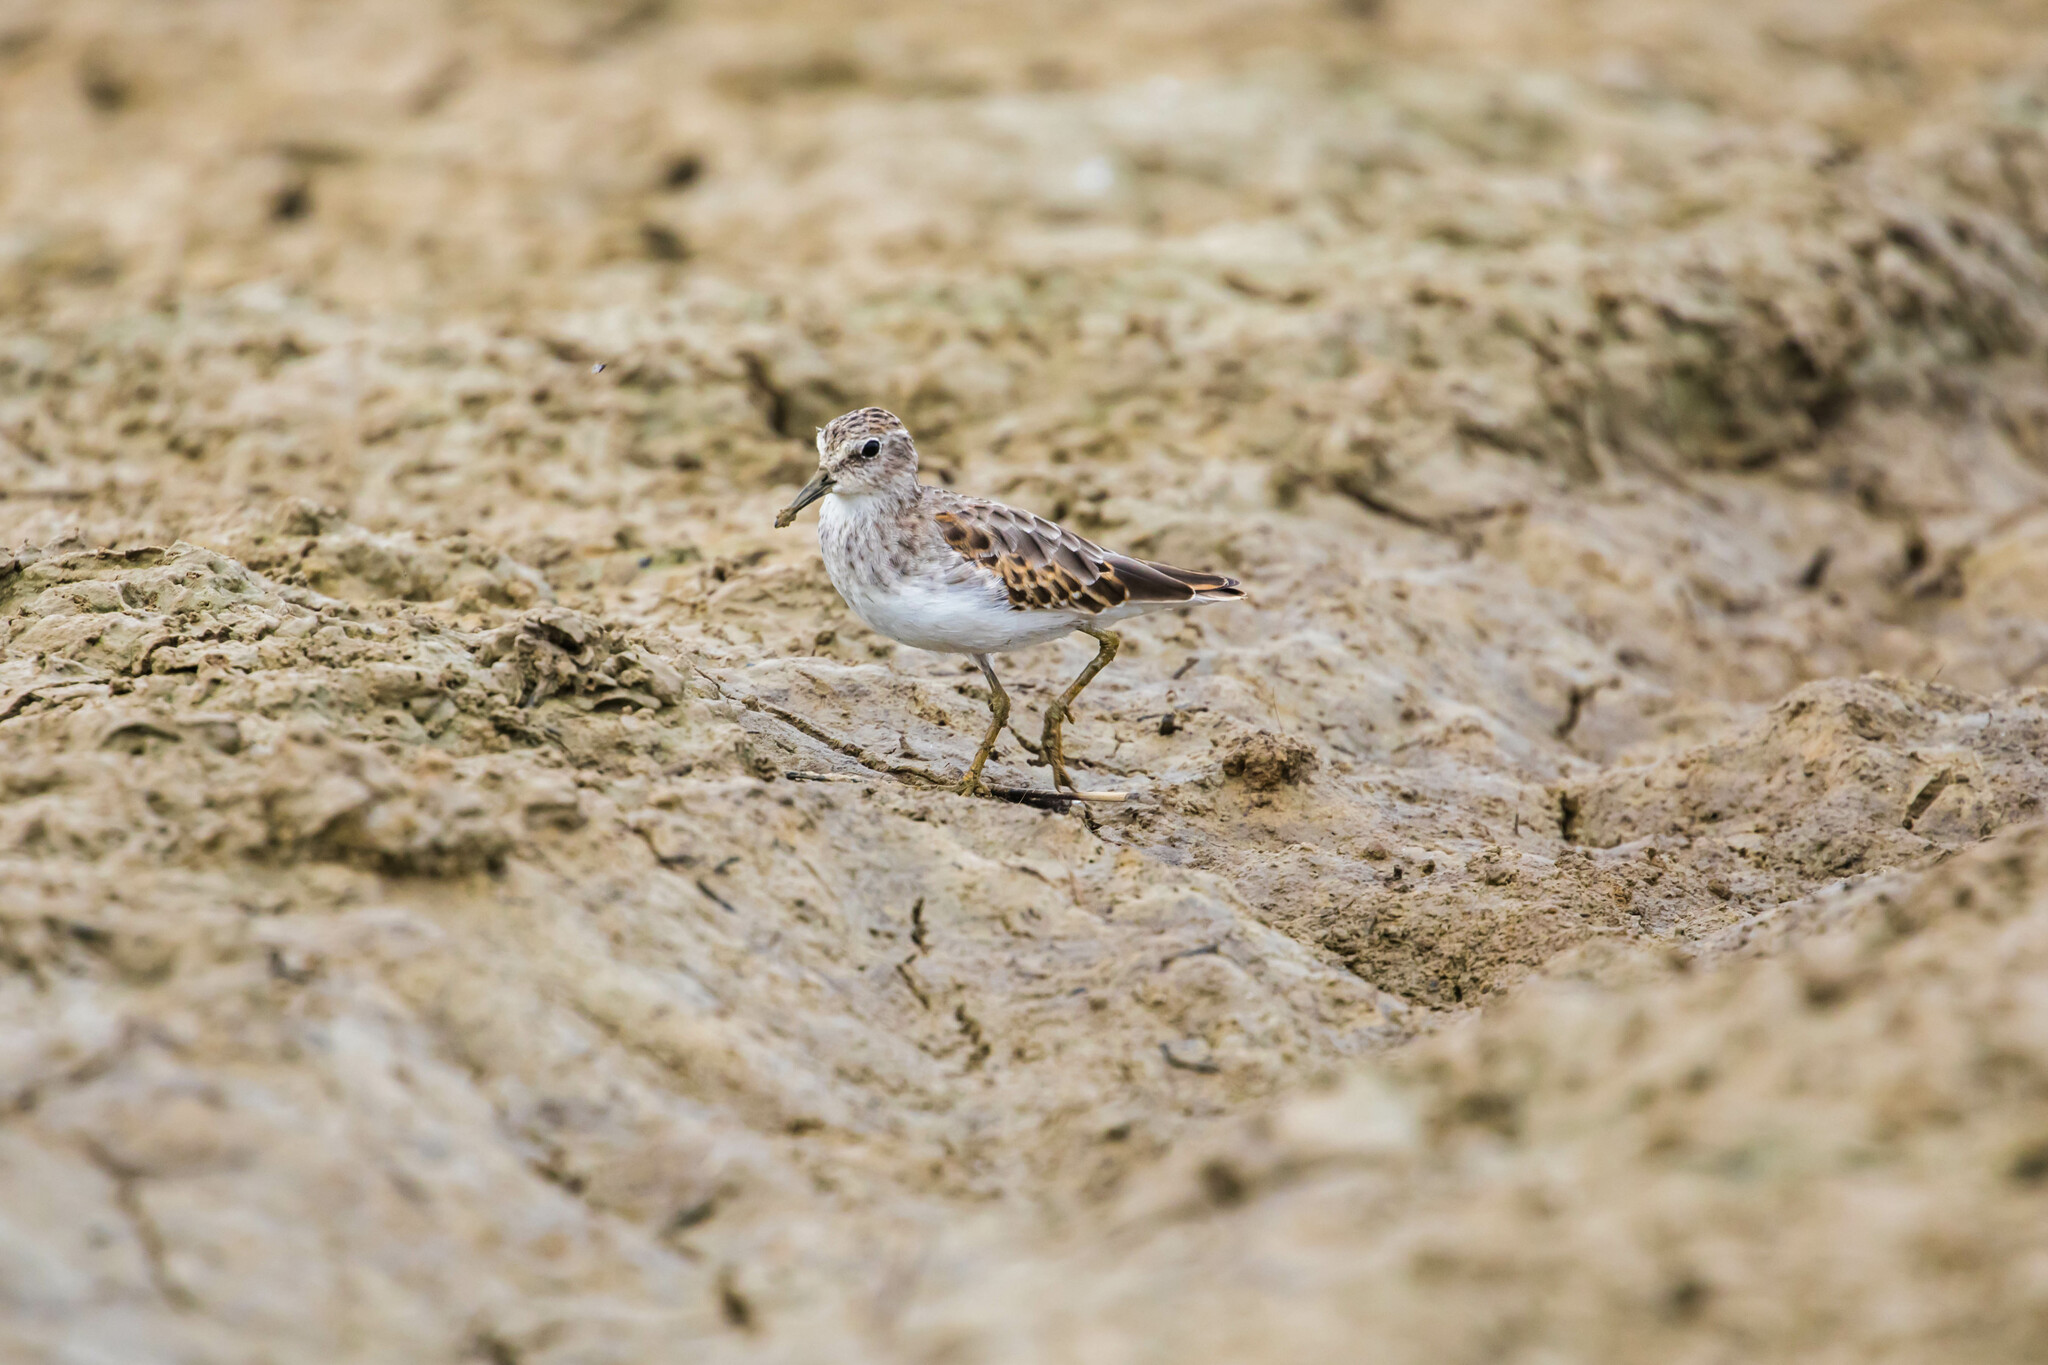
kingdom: Animalia
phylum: Chordata
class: Aves
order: Charadriiformes
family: Scolopacidae
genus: Calidris
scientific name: Calidris minutilla
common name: Least sandpiper
